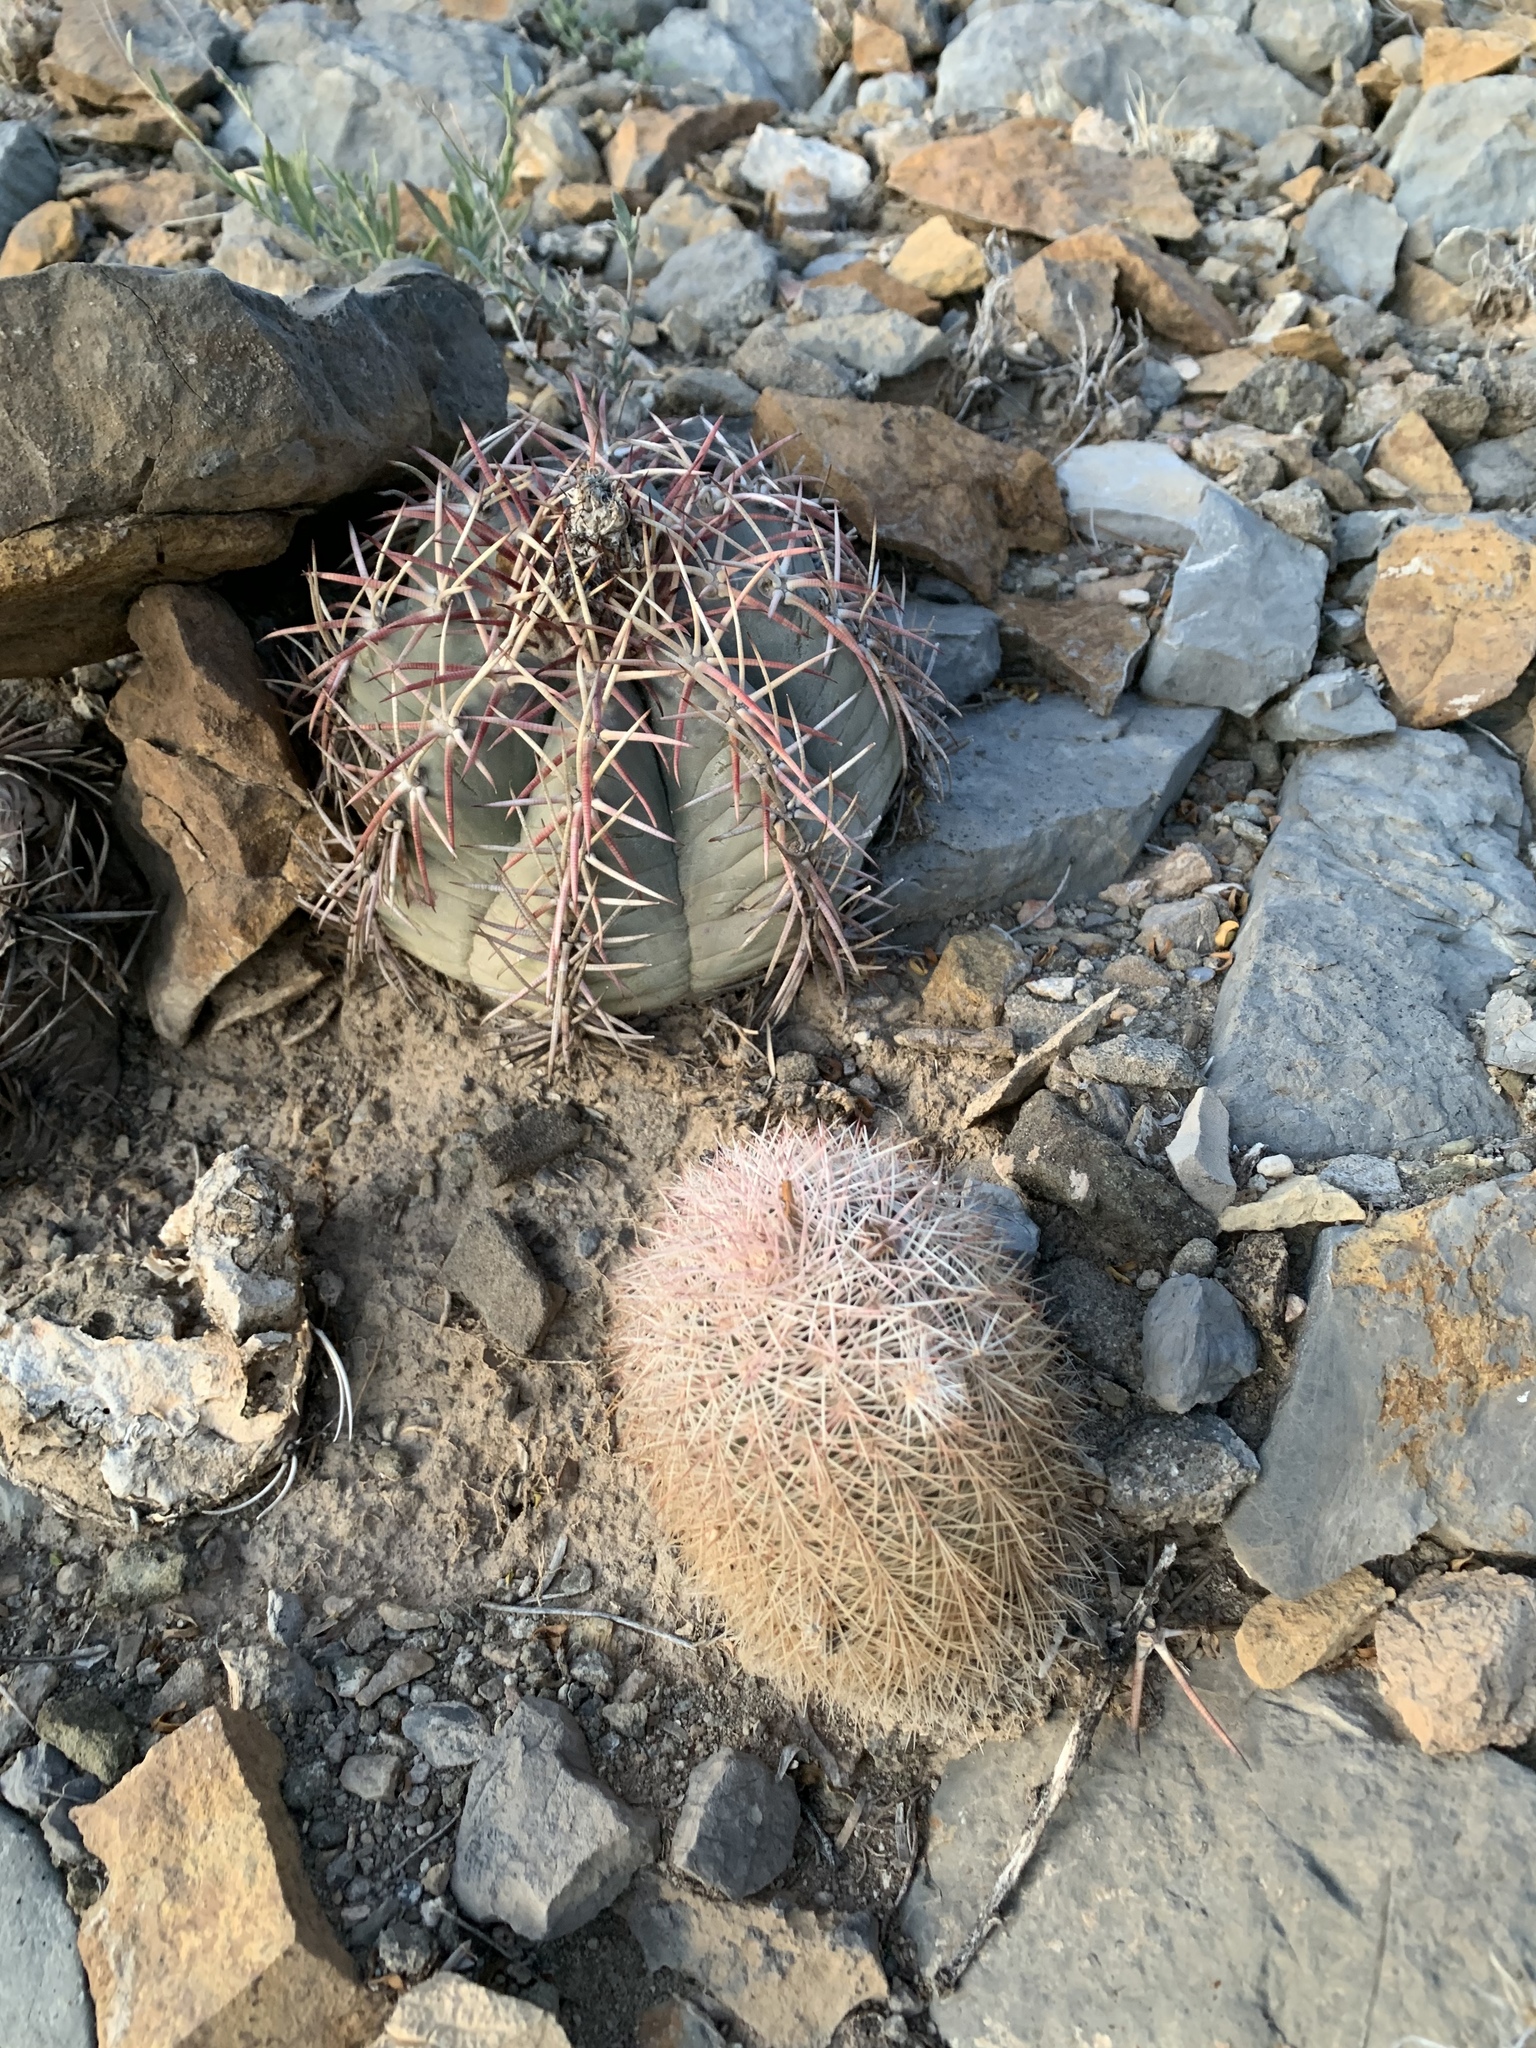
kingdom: Plantae
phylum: Tracheophyta
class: Magnoliopsida
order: Caryophyllales
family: Cactaceae
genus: Echinocactus
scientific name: Echinocactus horizonthalonius
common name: Devilshead
